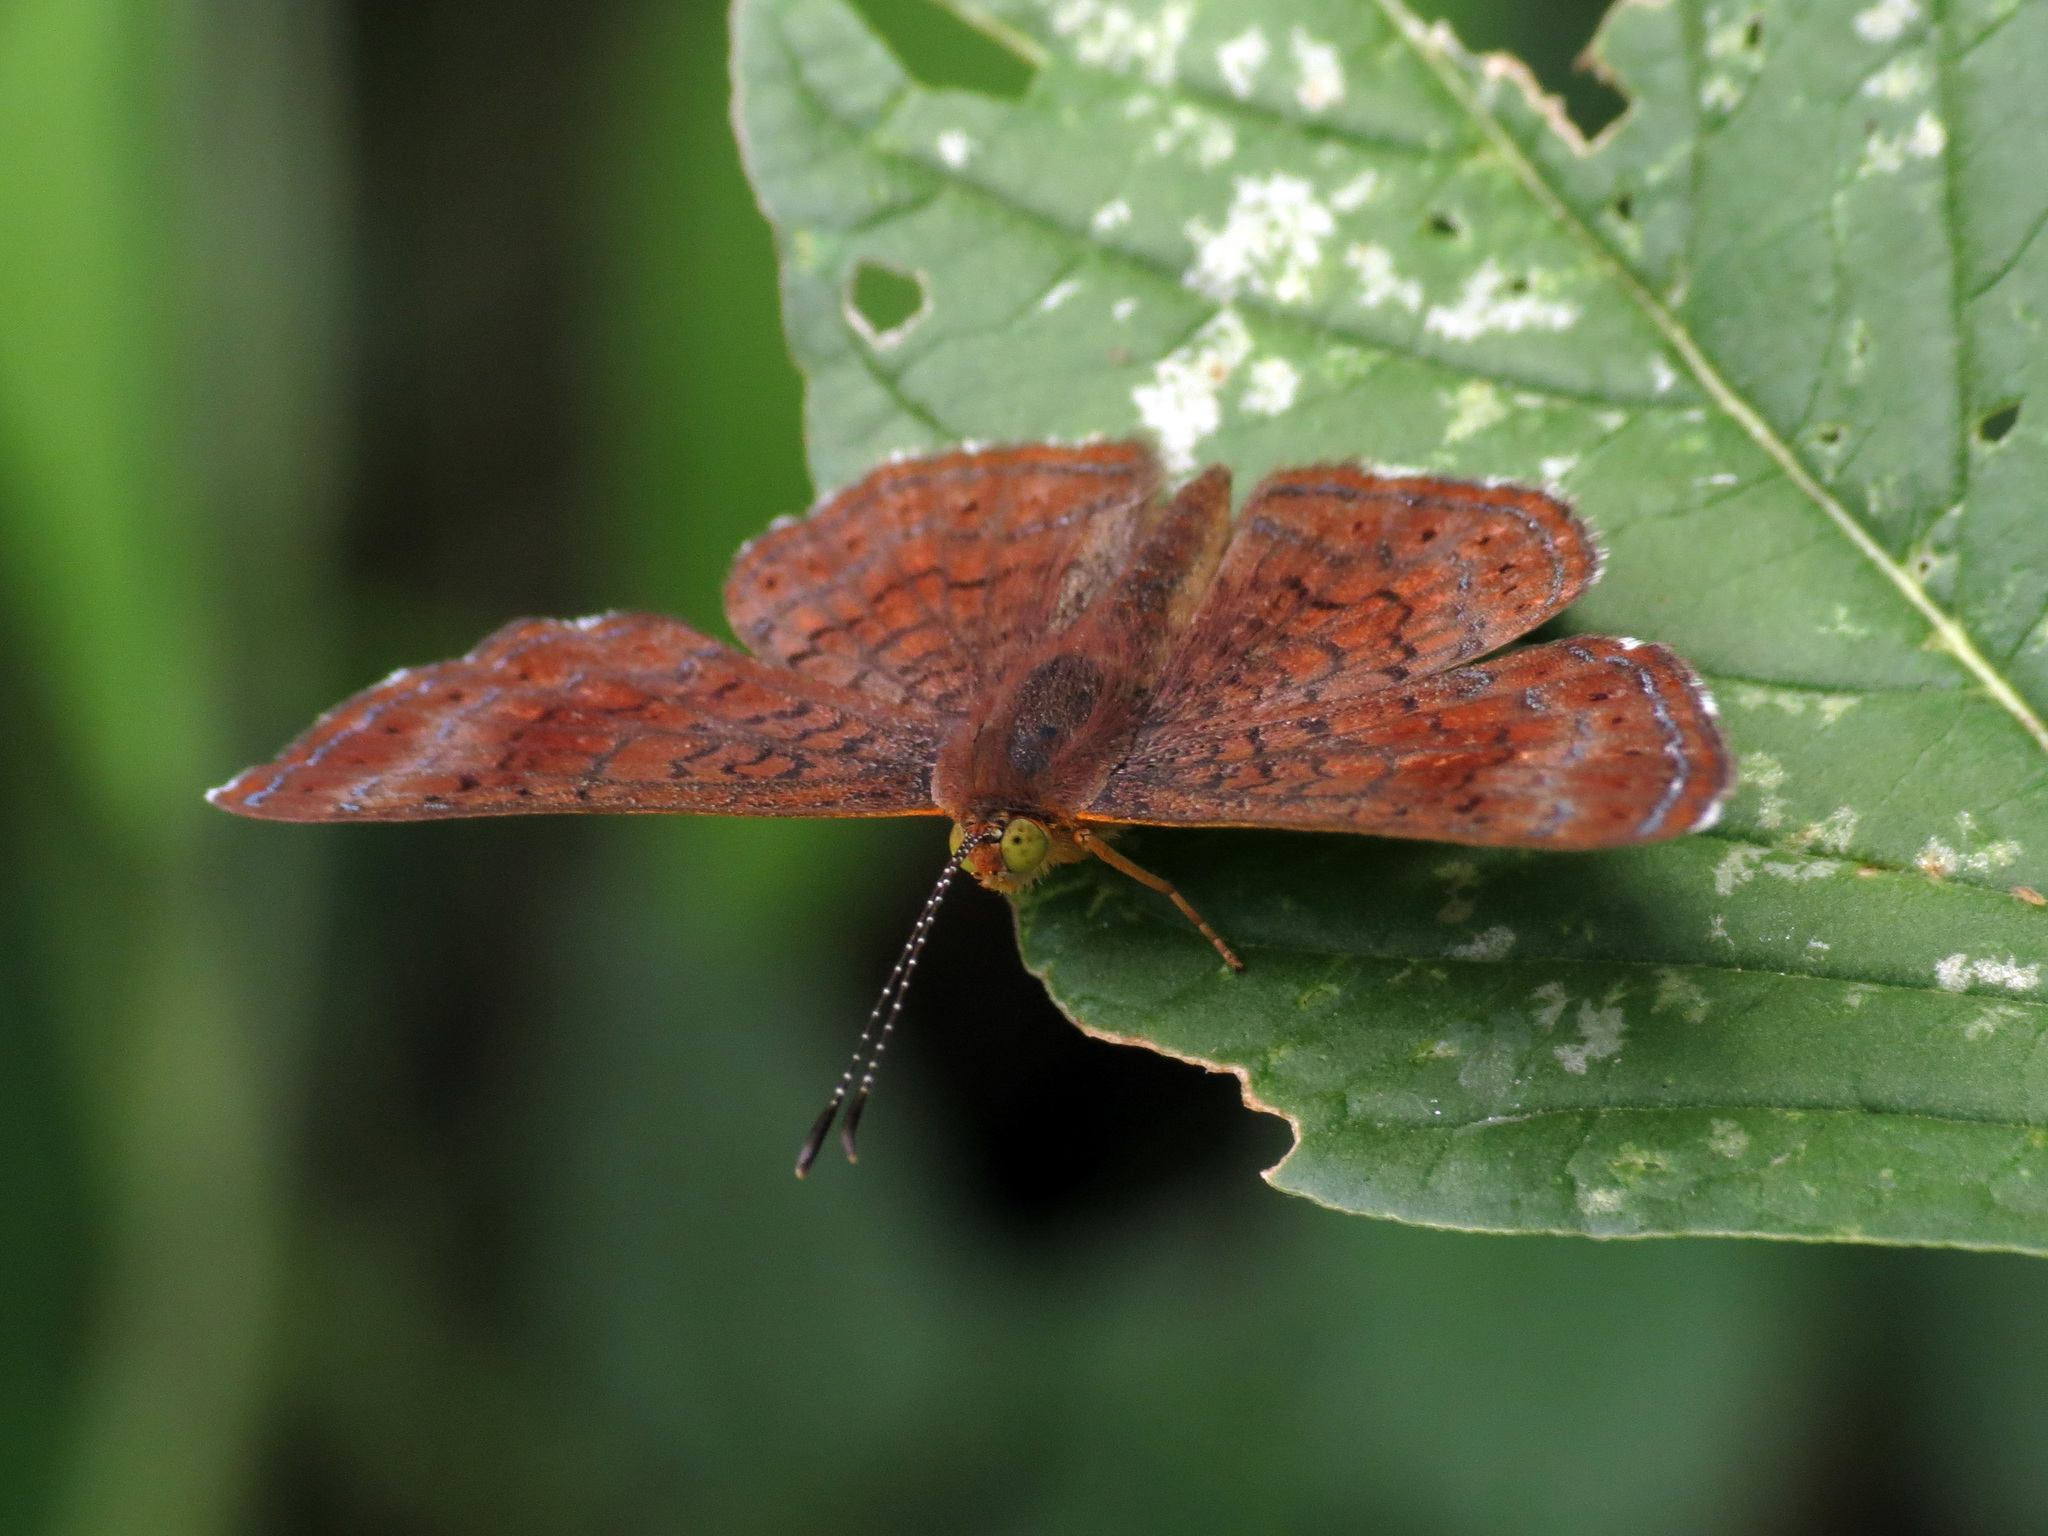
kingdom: Animalia
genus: Calephelis
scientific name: Calephelis arizonensis
